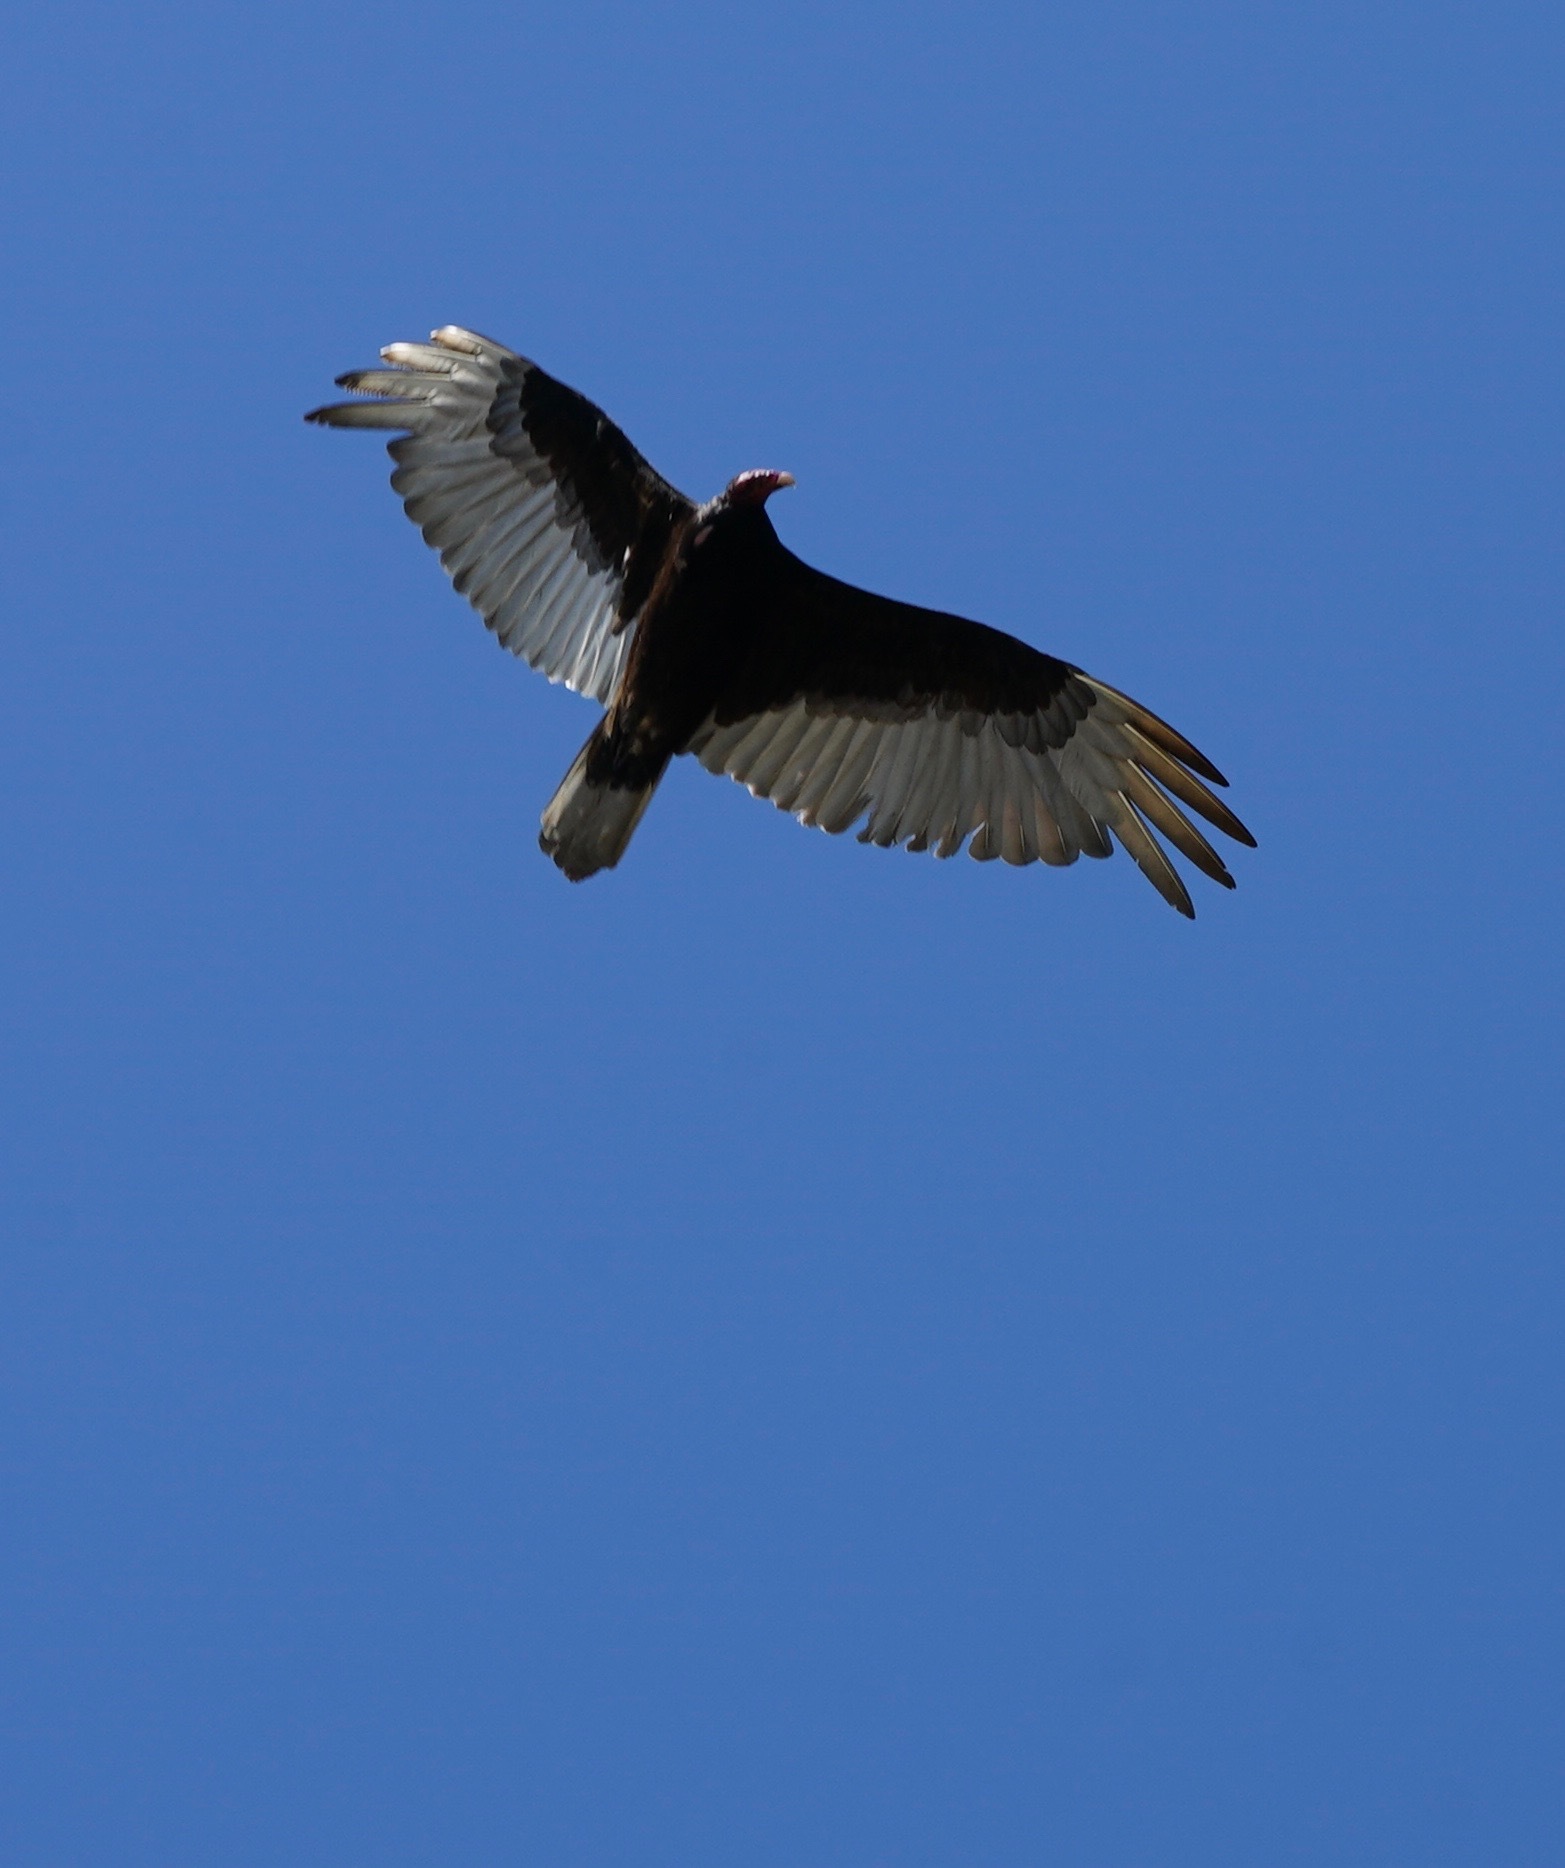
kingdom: Animalia
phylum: Chordata
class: Aves
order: Accipitriformes
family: Cathartidae
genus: Cathartes
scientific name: Cathartes aura
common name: Turkey vulture
